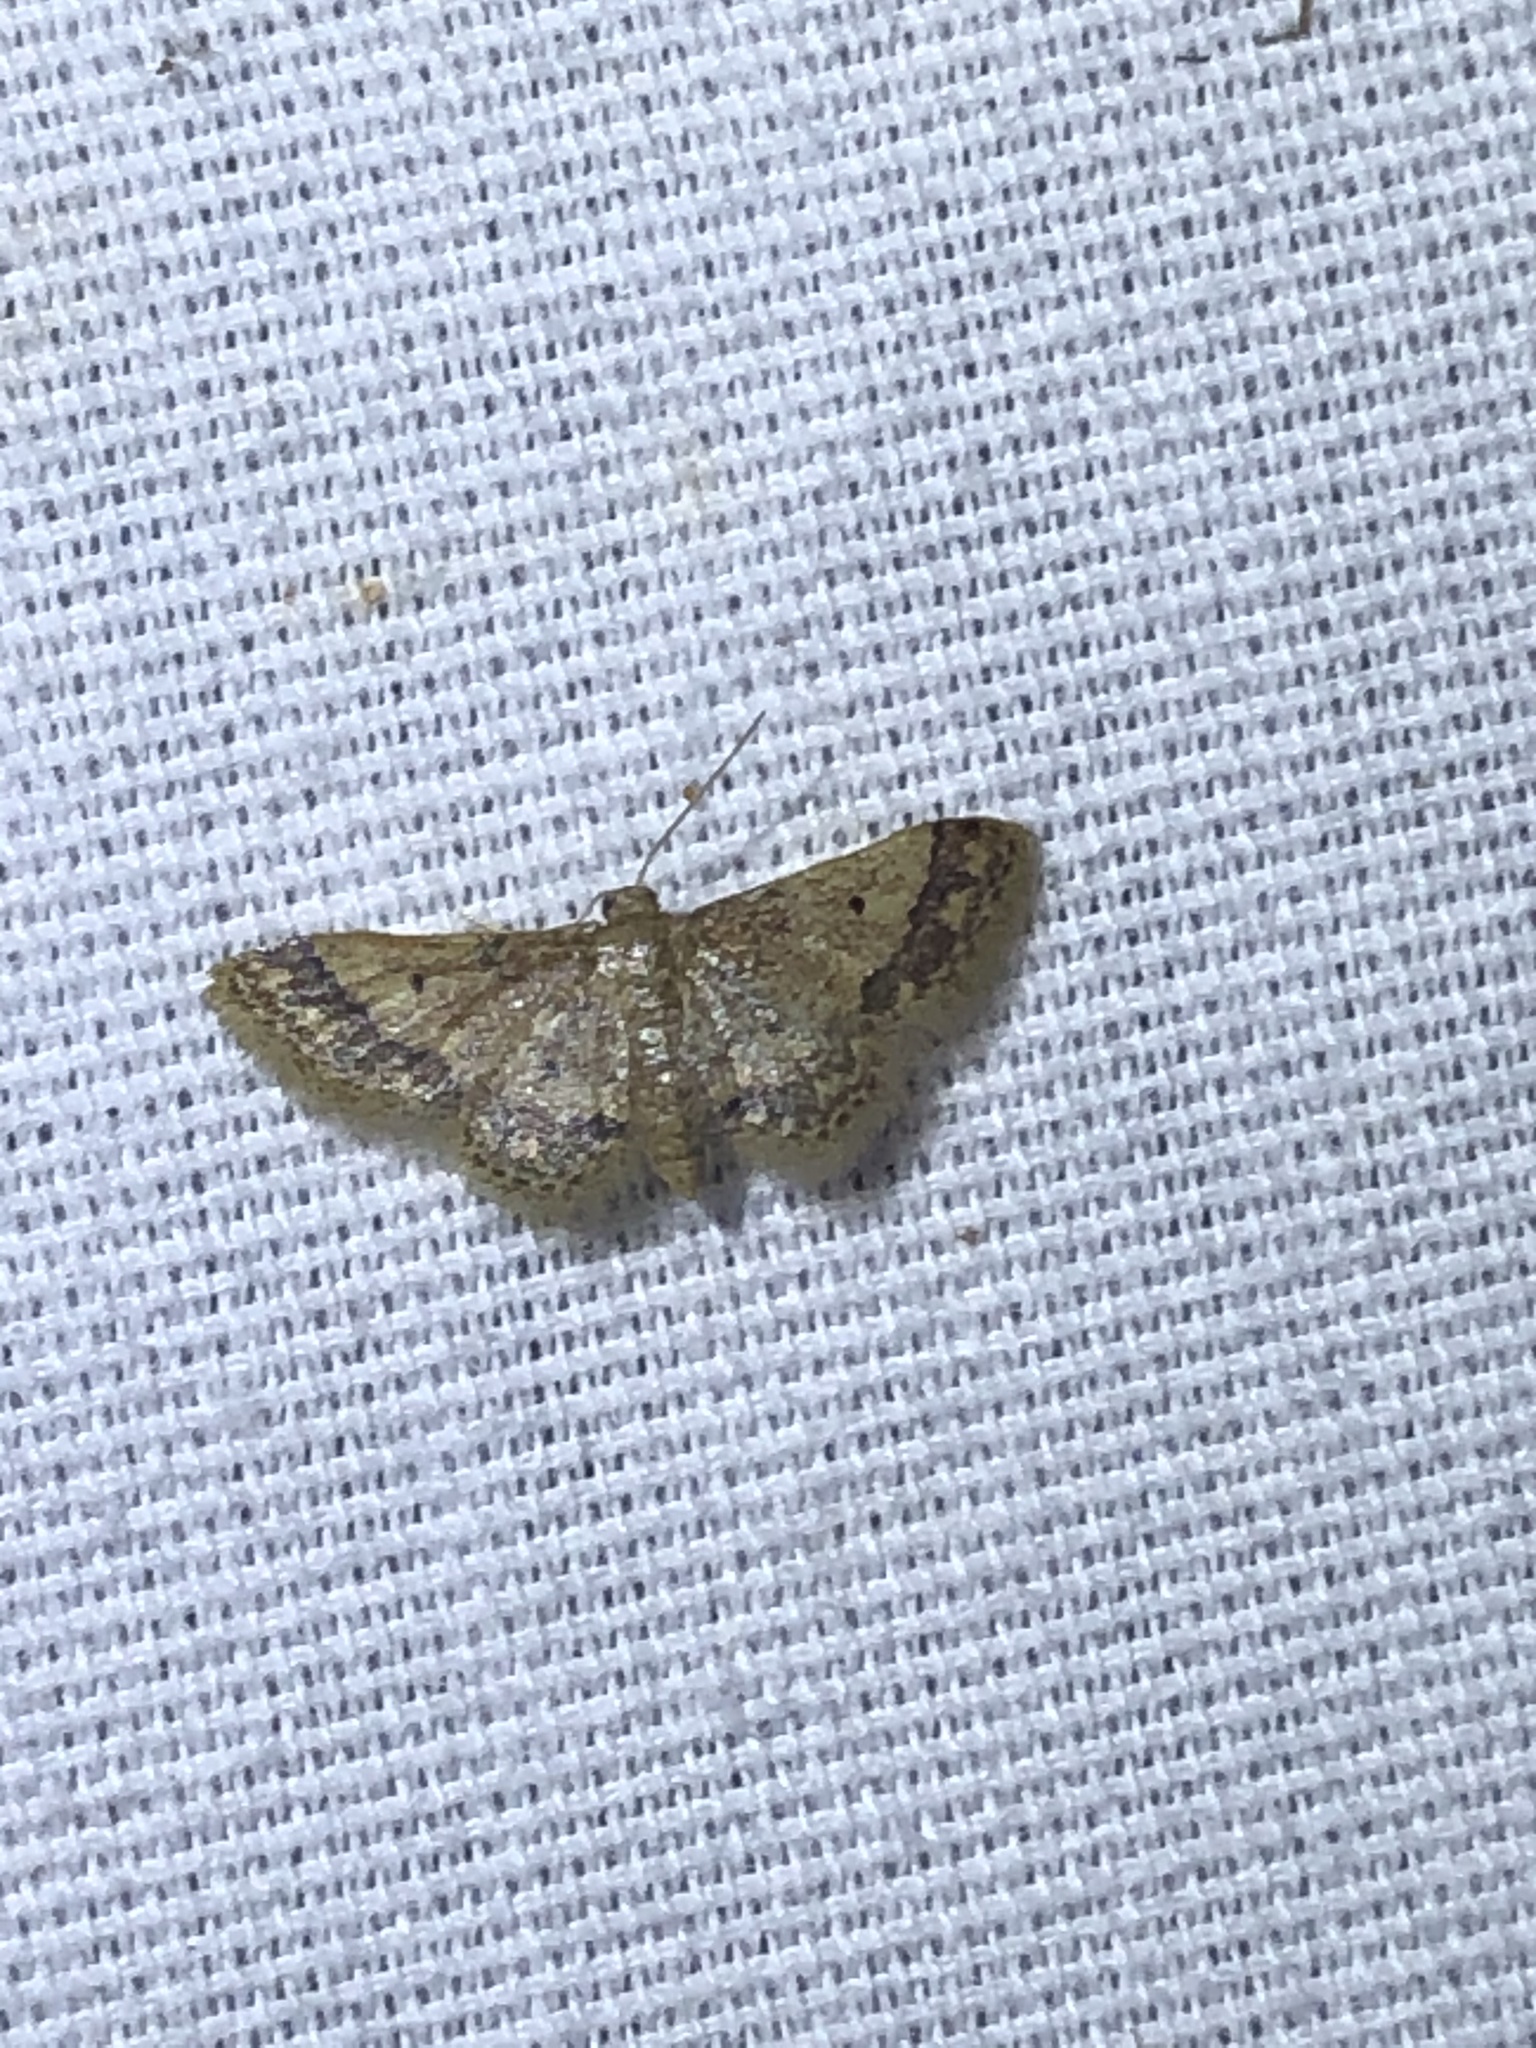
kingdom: Animalia
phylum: Arthropoda
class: Insecta
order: Lepidoptera
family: Geometridae
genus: Idaea
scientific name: Idaea celtima
